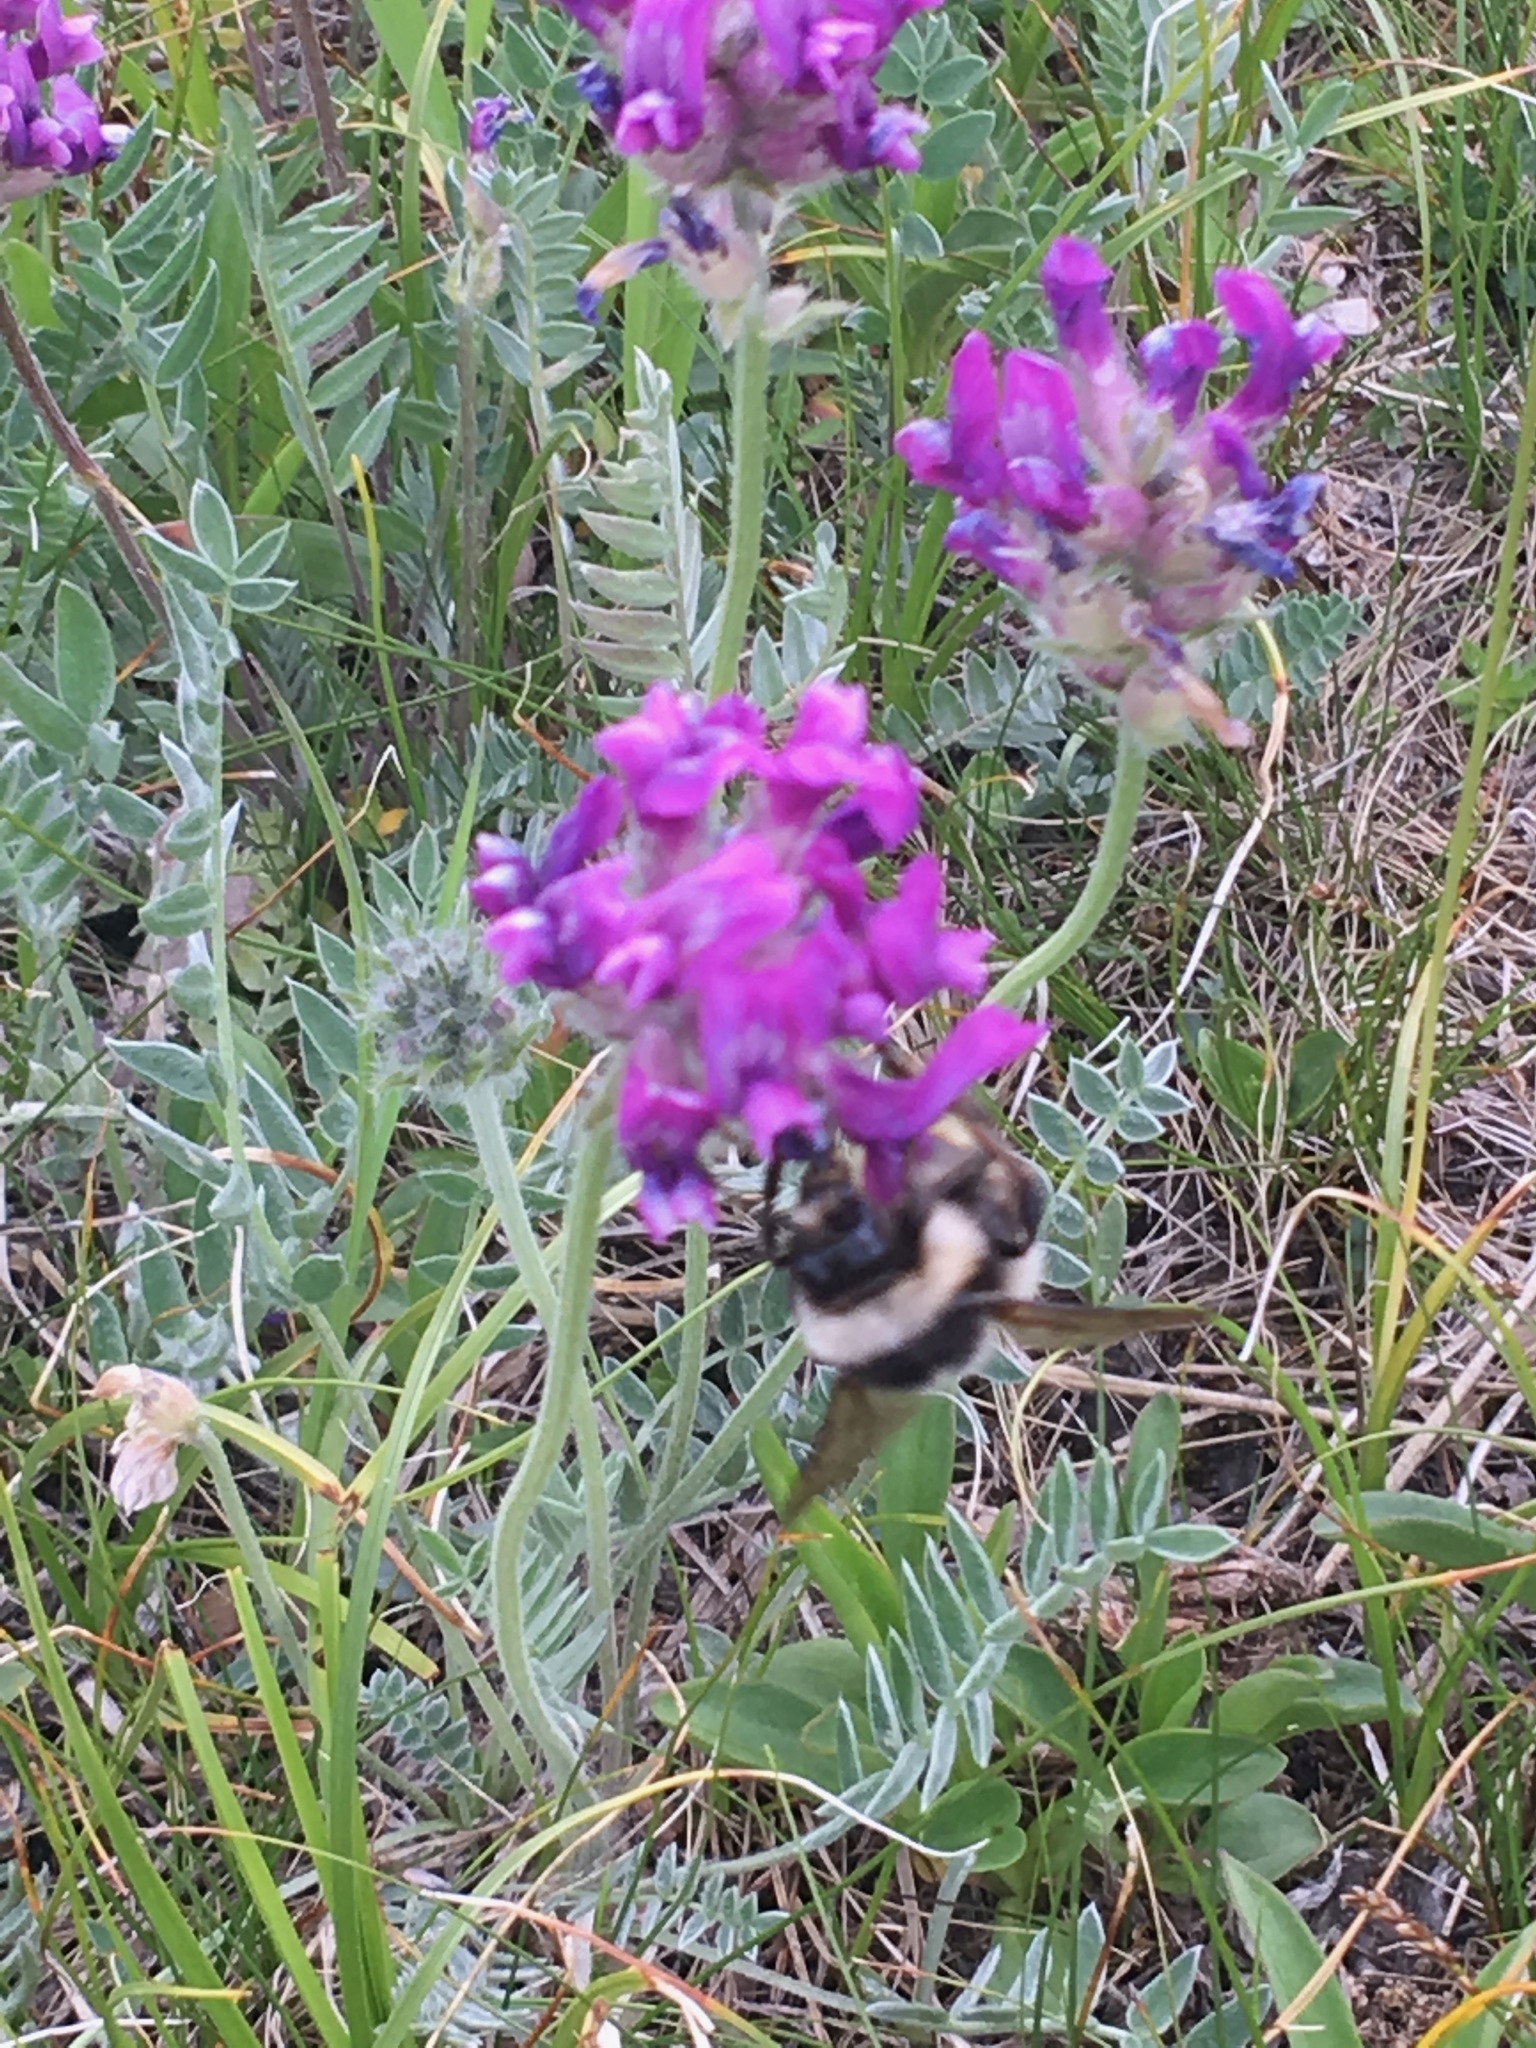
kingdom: Animalia
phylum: Arthropoda
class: Insecta
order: Hymenoptera
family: Apidae
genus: Bombus
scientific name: Bombus keriensis
